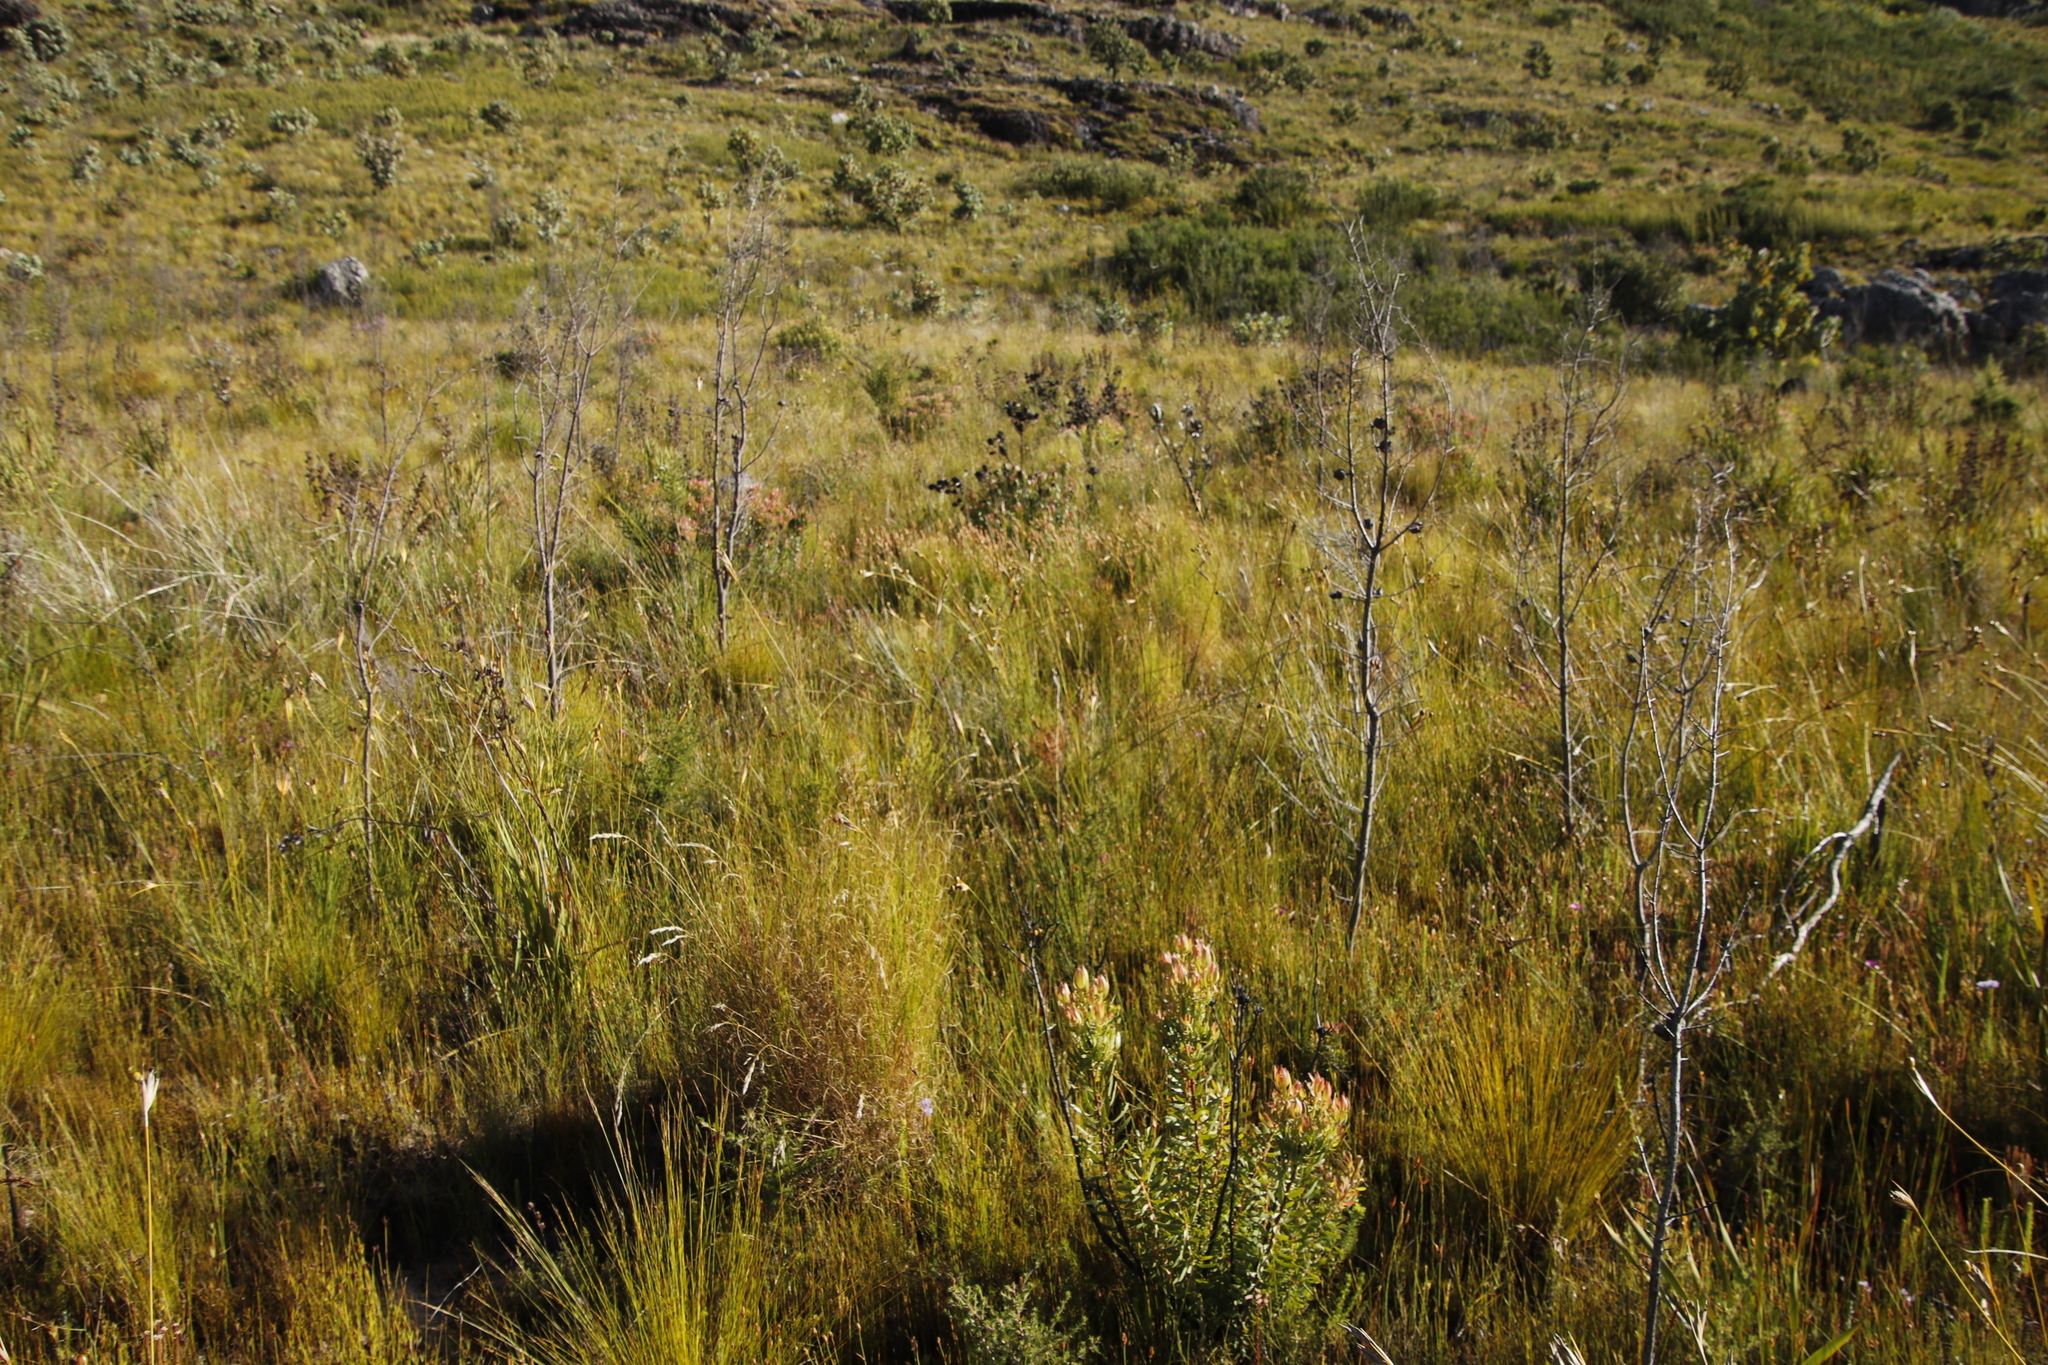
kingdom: Plantae
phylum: Tracheophyta
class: Magnoliopsida
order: Proteales
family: Proteaceae
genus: Hakea
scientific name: Hakea sericea
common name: Needle bush
